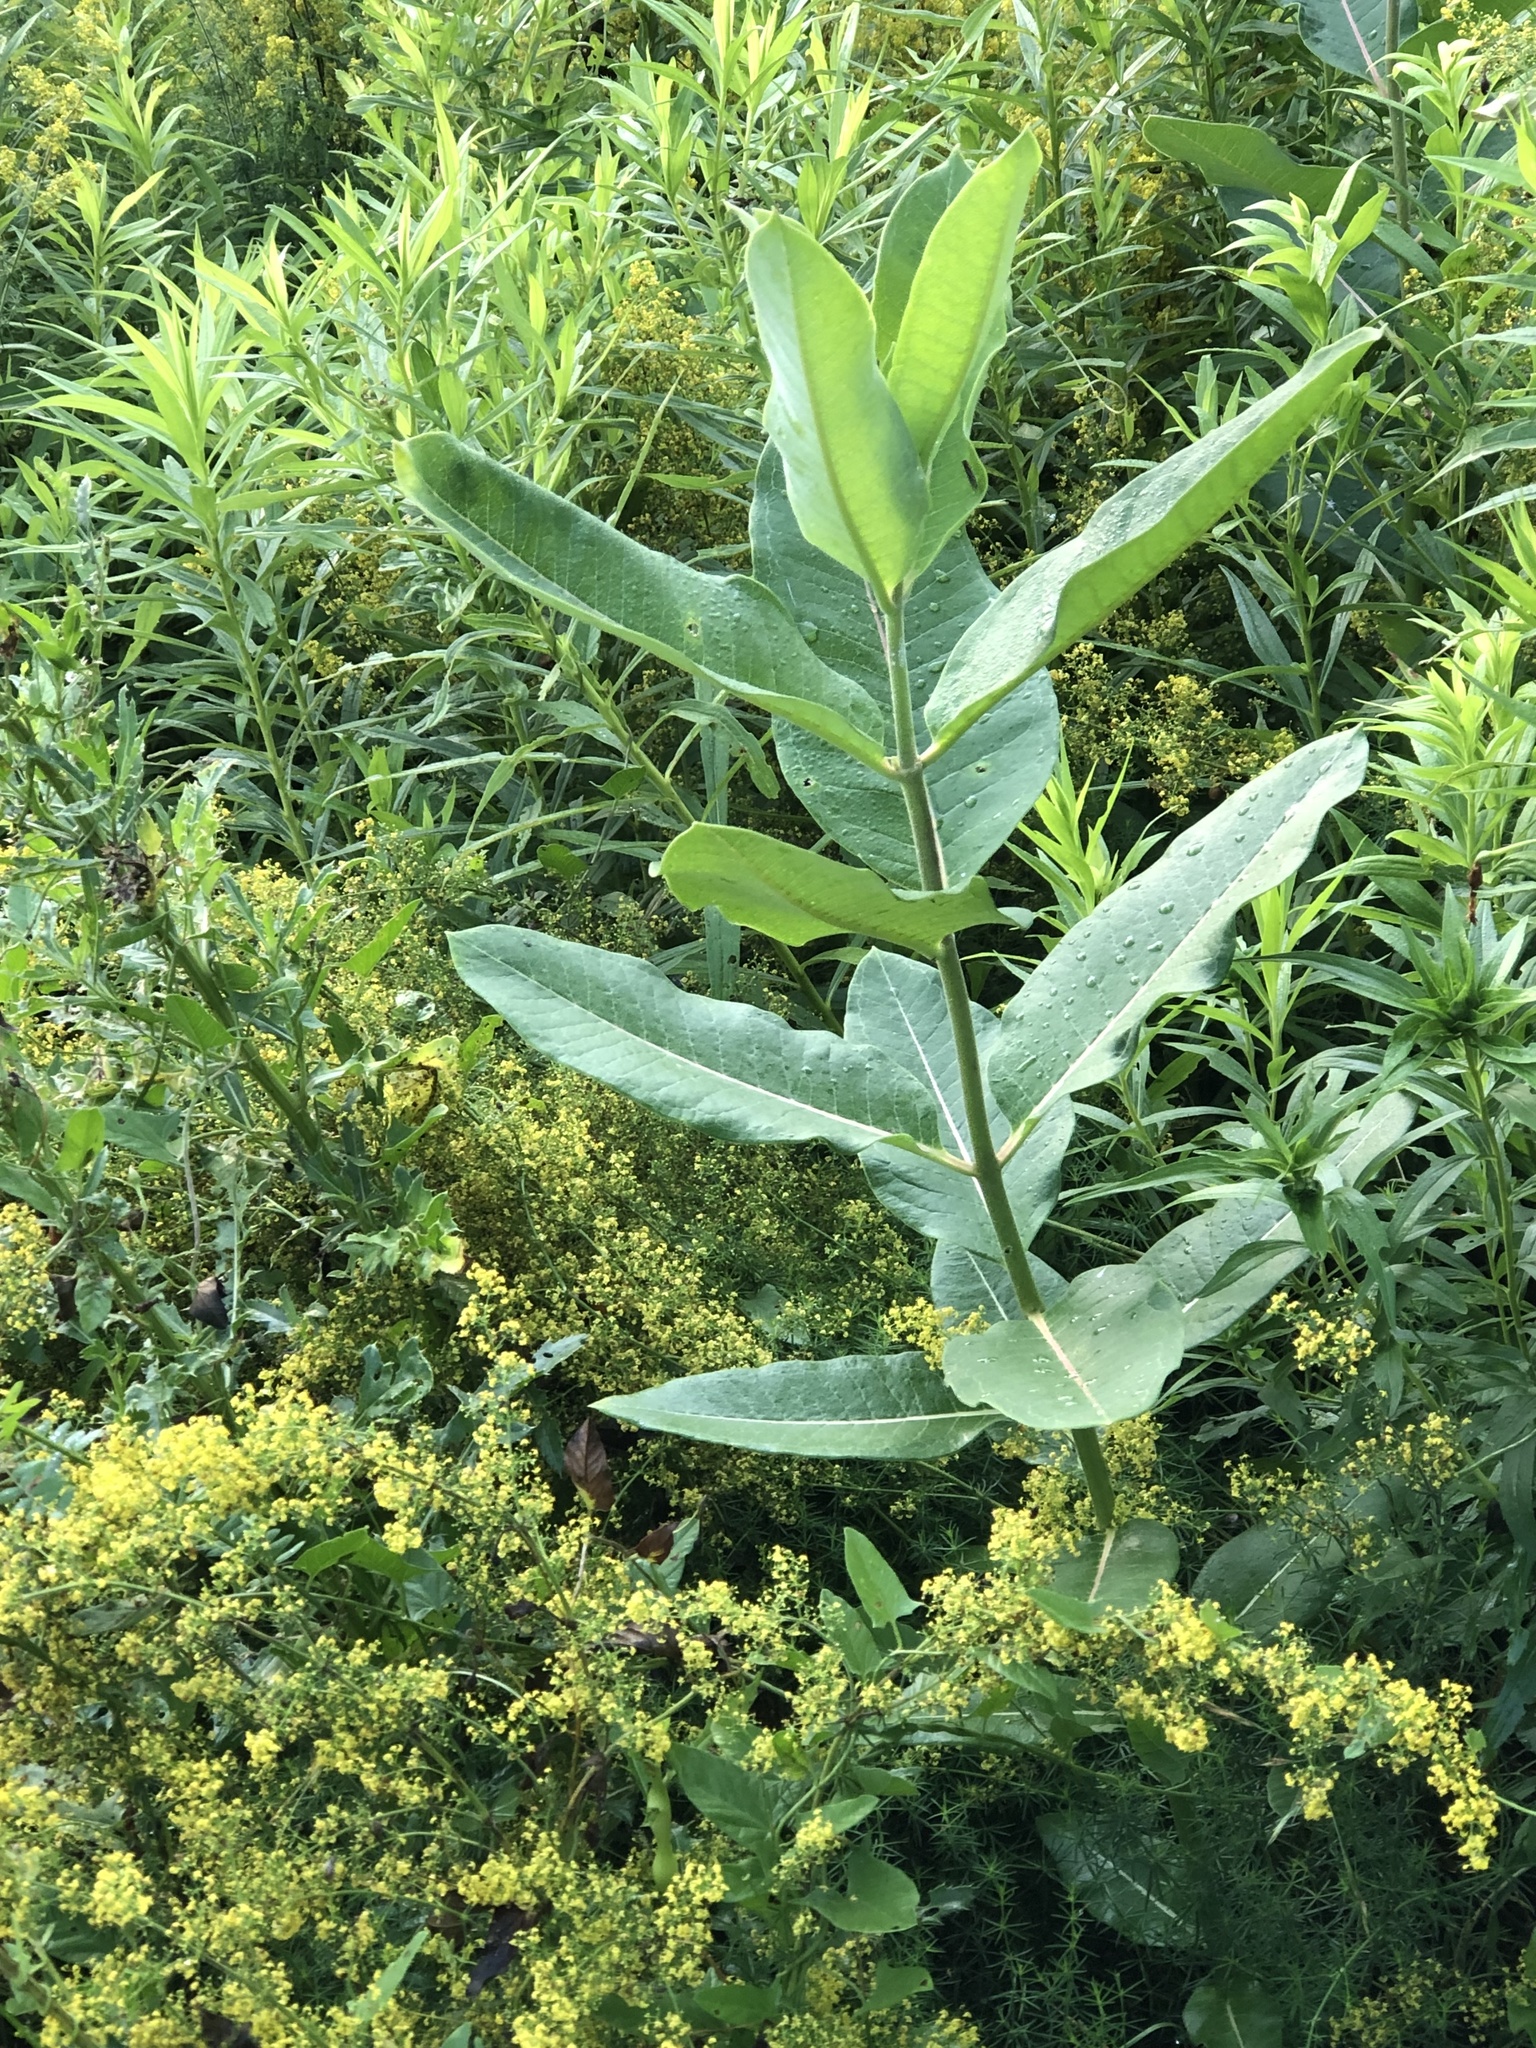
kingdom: Plantae
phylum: Tracheophyta
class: Magnoliopsida
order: Gentianales
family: Apocynaceae
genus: Asclepias
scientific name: Asclepias syriaca
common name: Common milkweed
